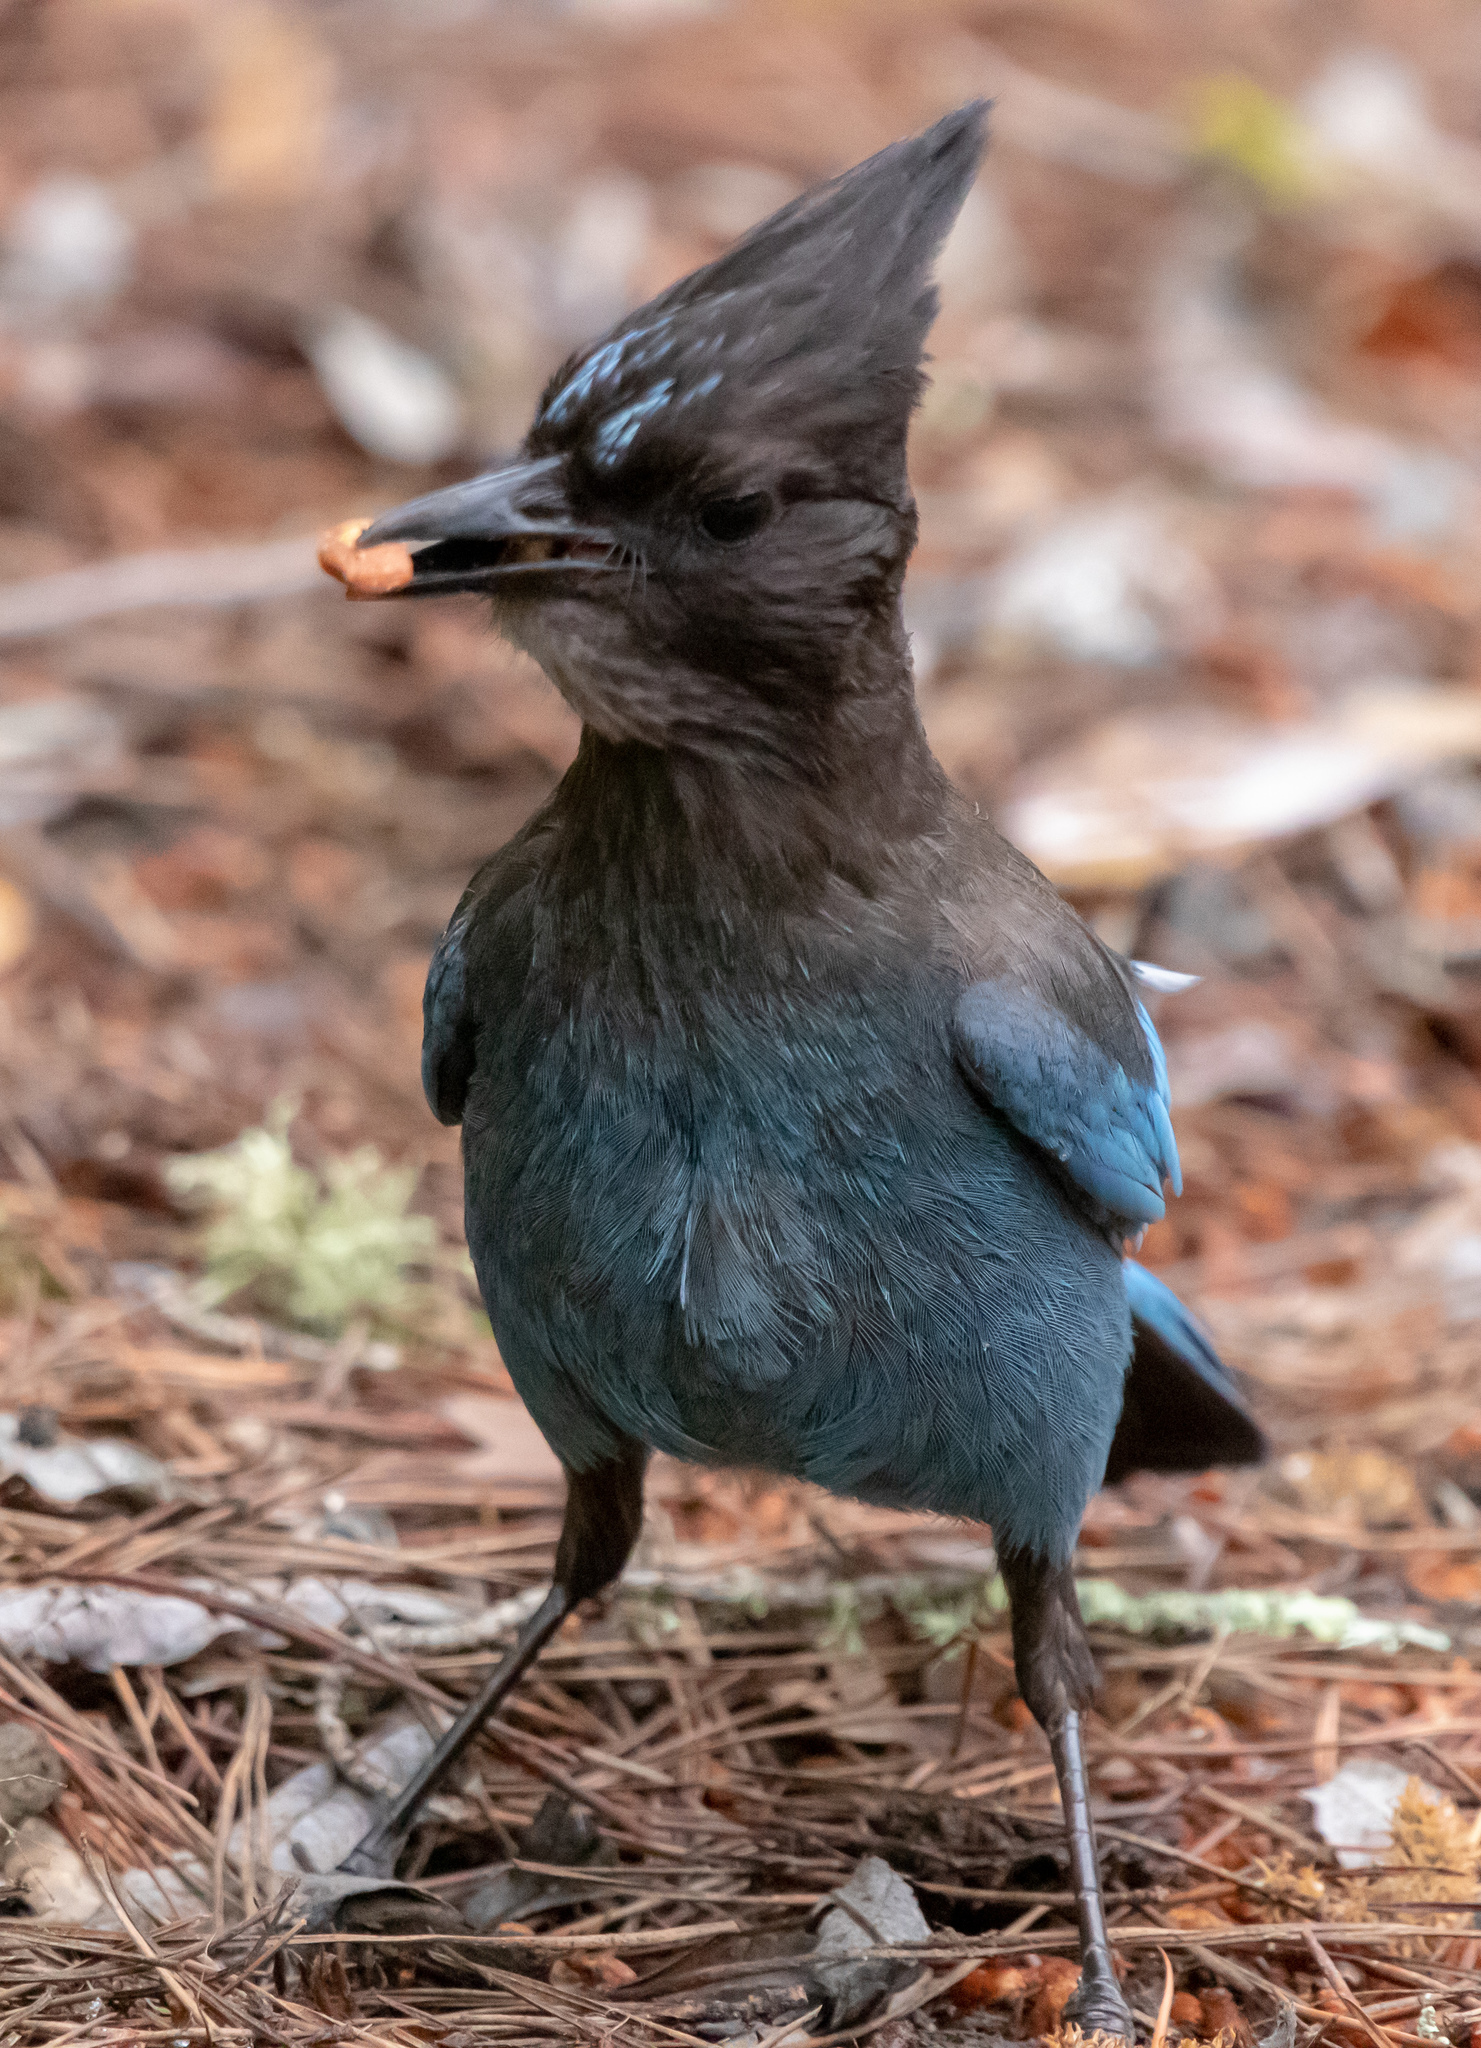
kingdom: Animalia
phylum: Chordata
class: Aves
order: Passeriformes
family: Corvidae
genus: Cyanocitta
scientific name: Cyanocitta stelleri
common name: Steller's jay
